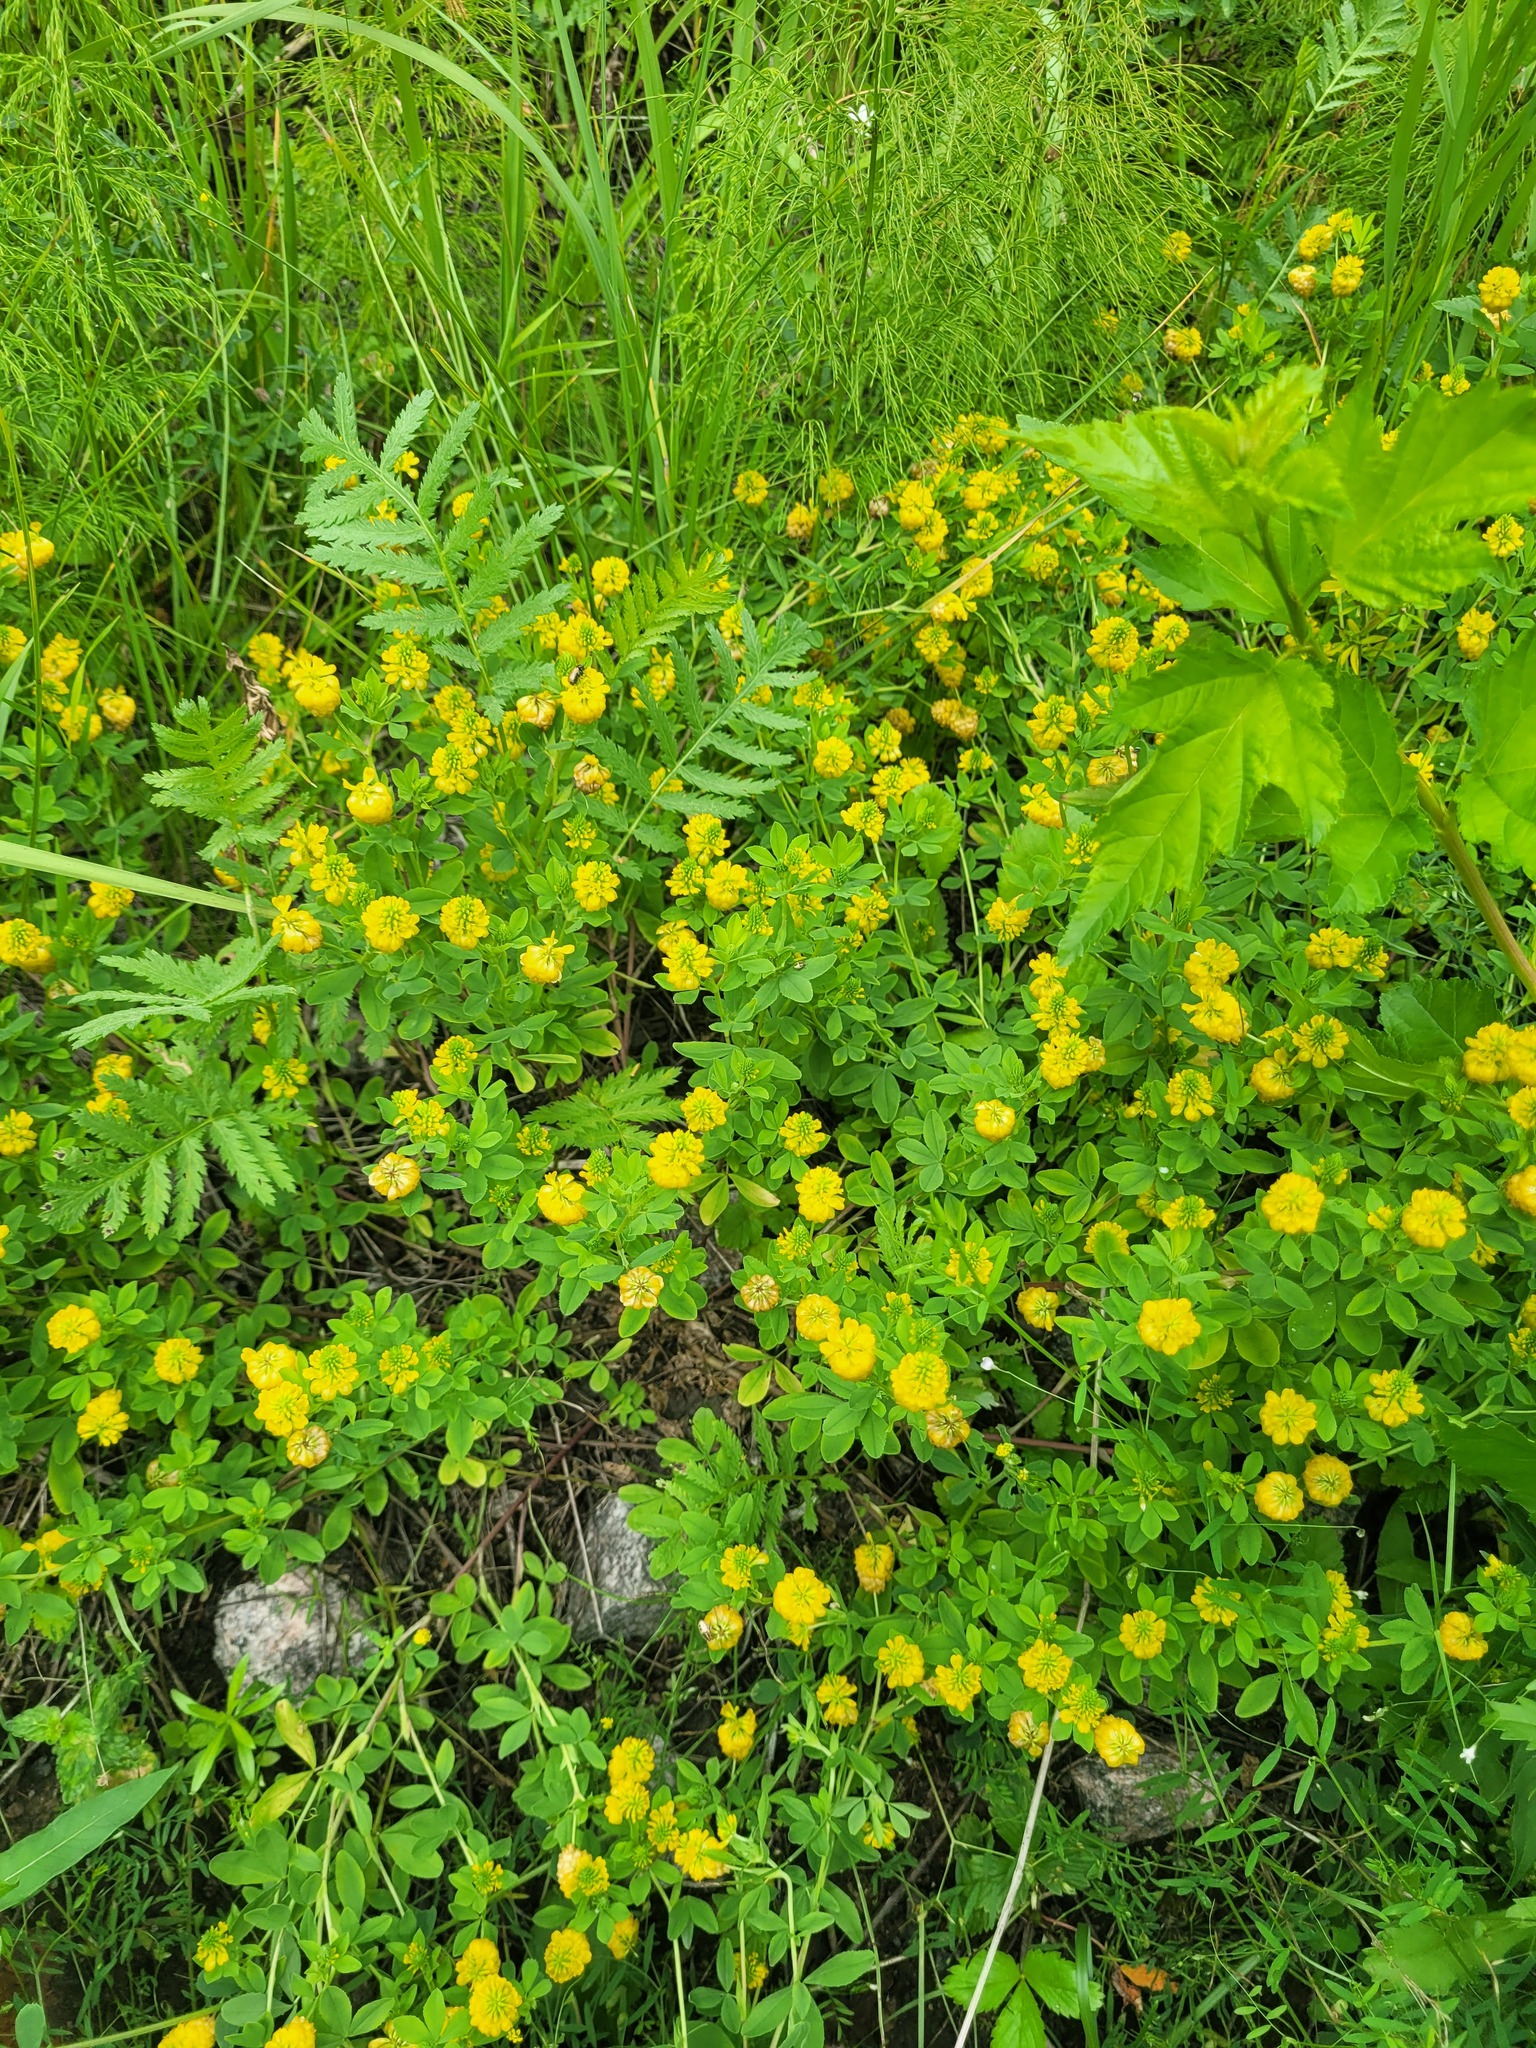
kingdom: Plantae
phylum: Tracheophyta
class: Magnoliopsida
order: Fabales
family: Fabaceae
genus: Trifolium
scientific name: Trifolium aureum
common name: Golden clover
